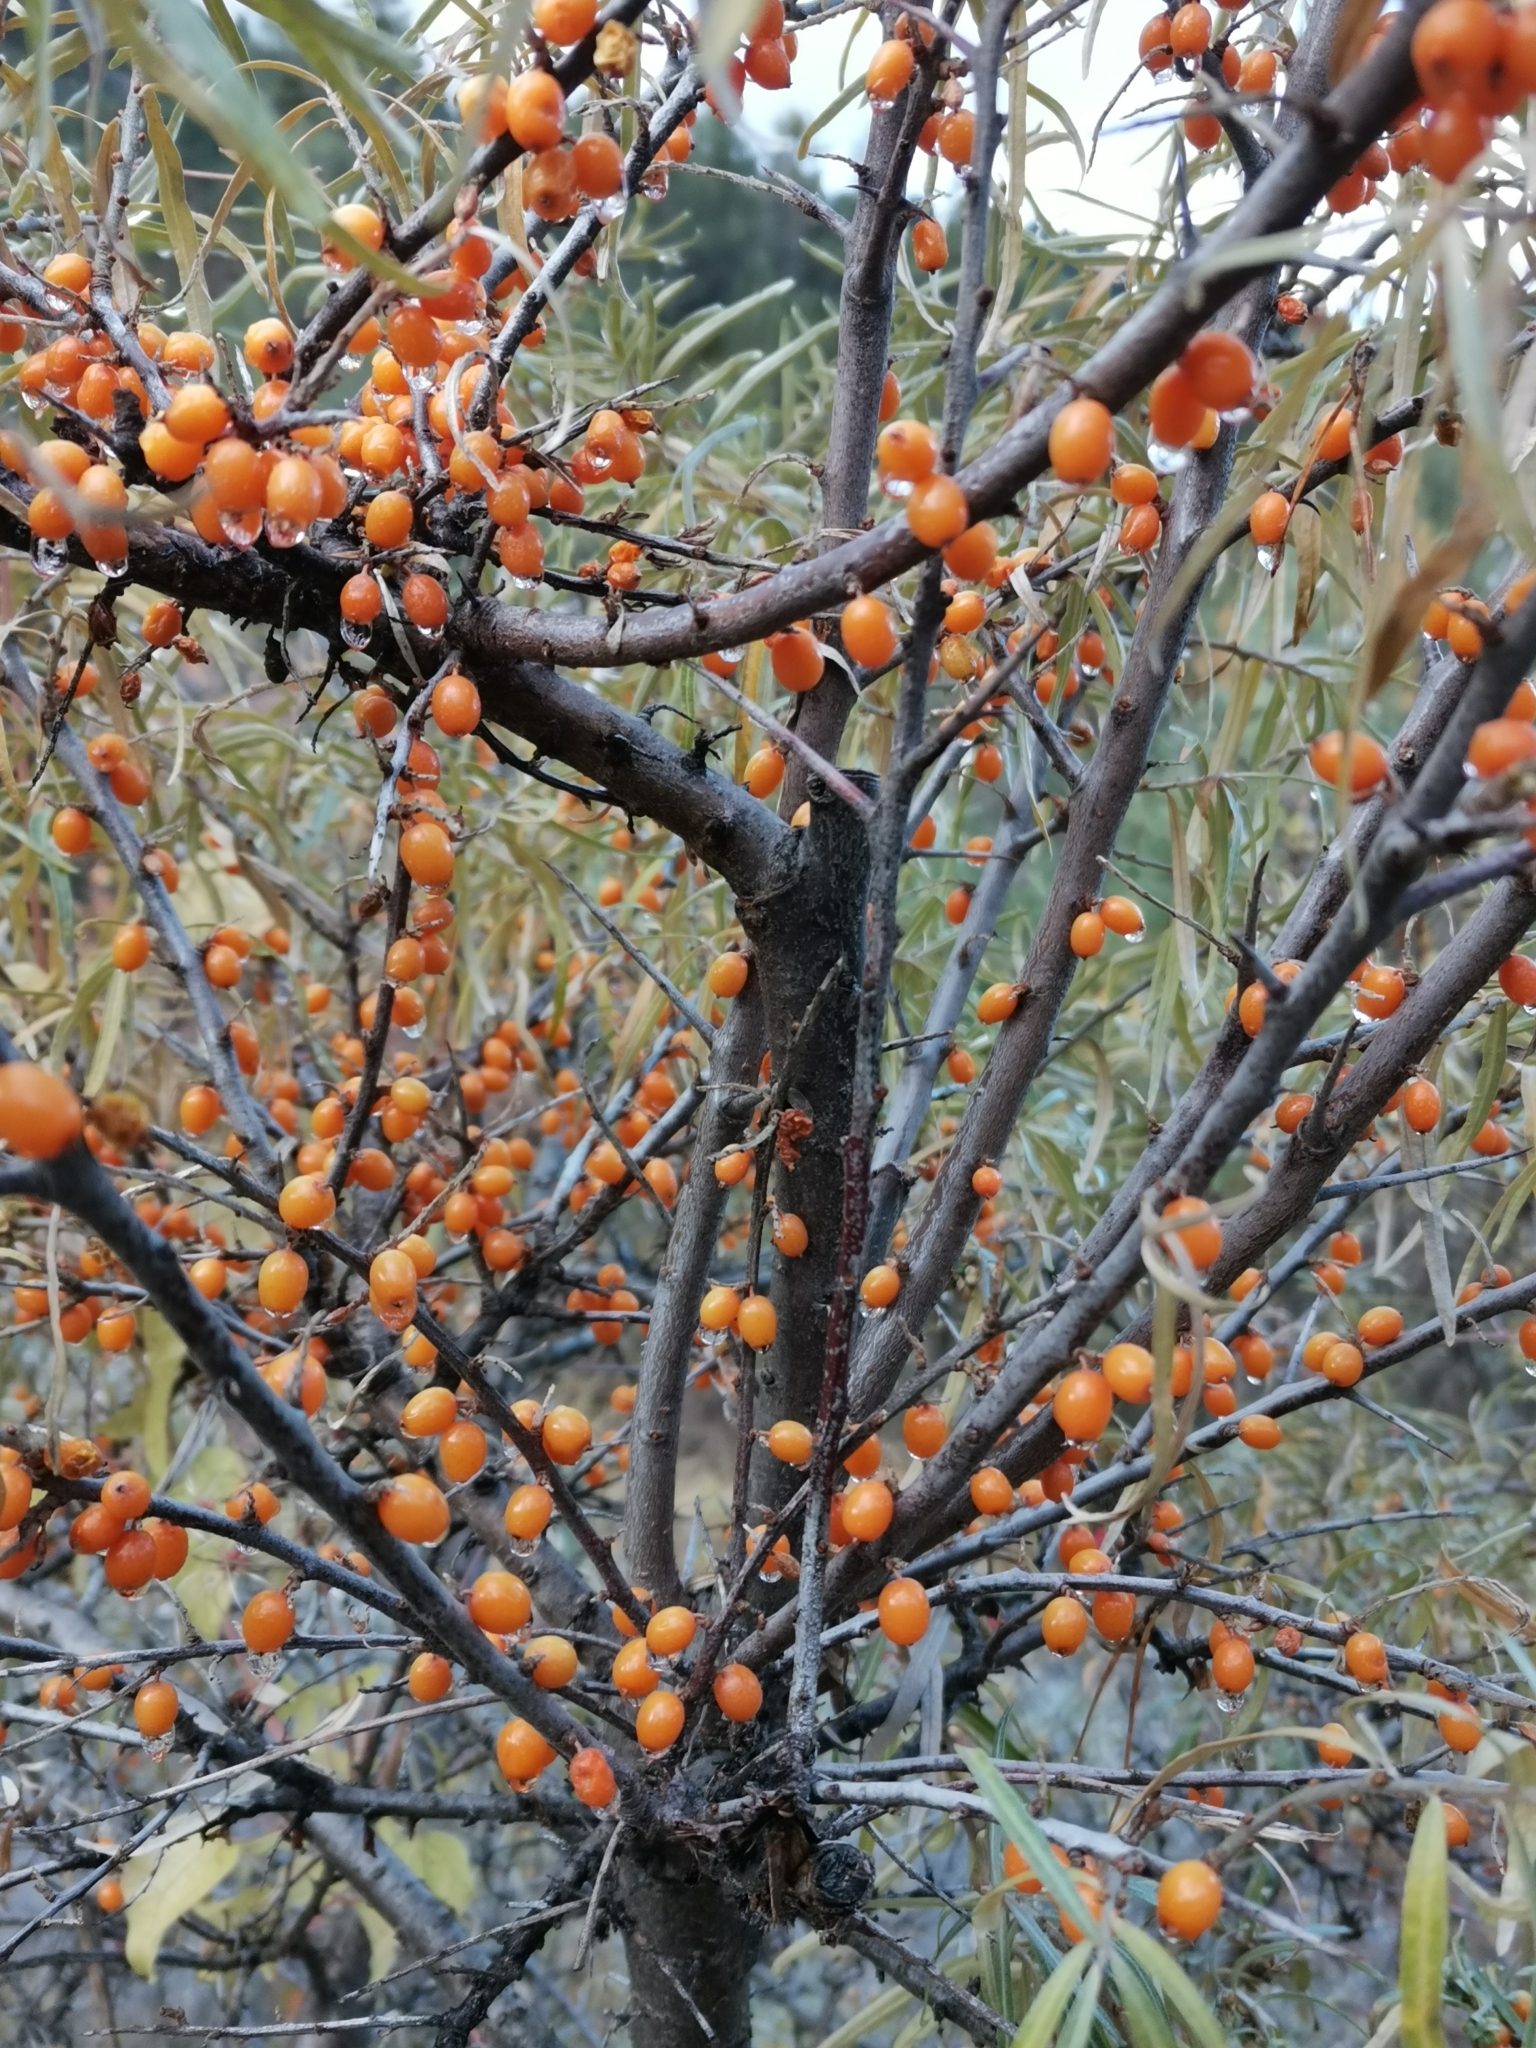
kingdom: Plantae
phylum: Tracheophyta
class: Magnoliopsida
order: Rosales
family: Elaeagnaceae
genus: Hippophae
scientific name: Hippophae rhamnoides
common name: Sea-buckthorn
